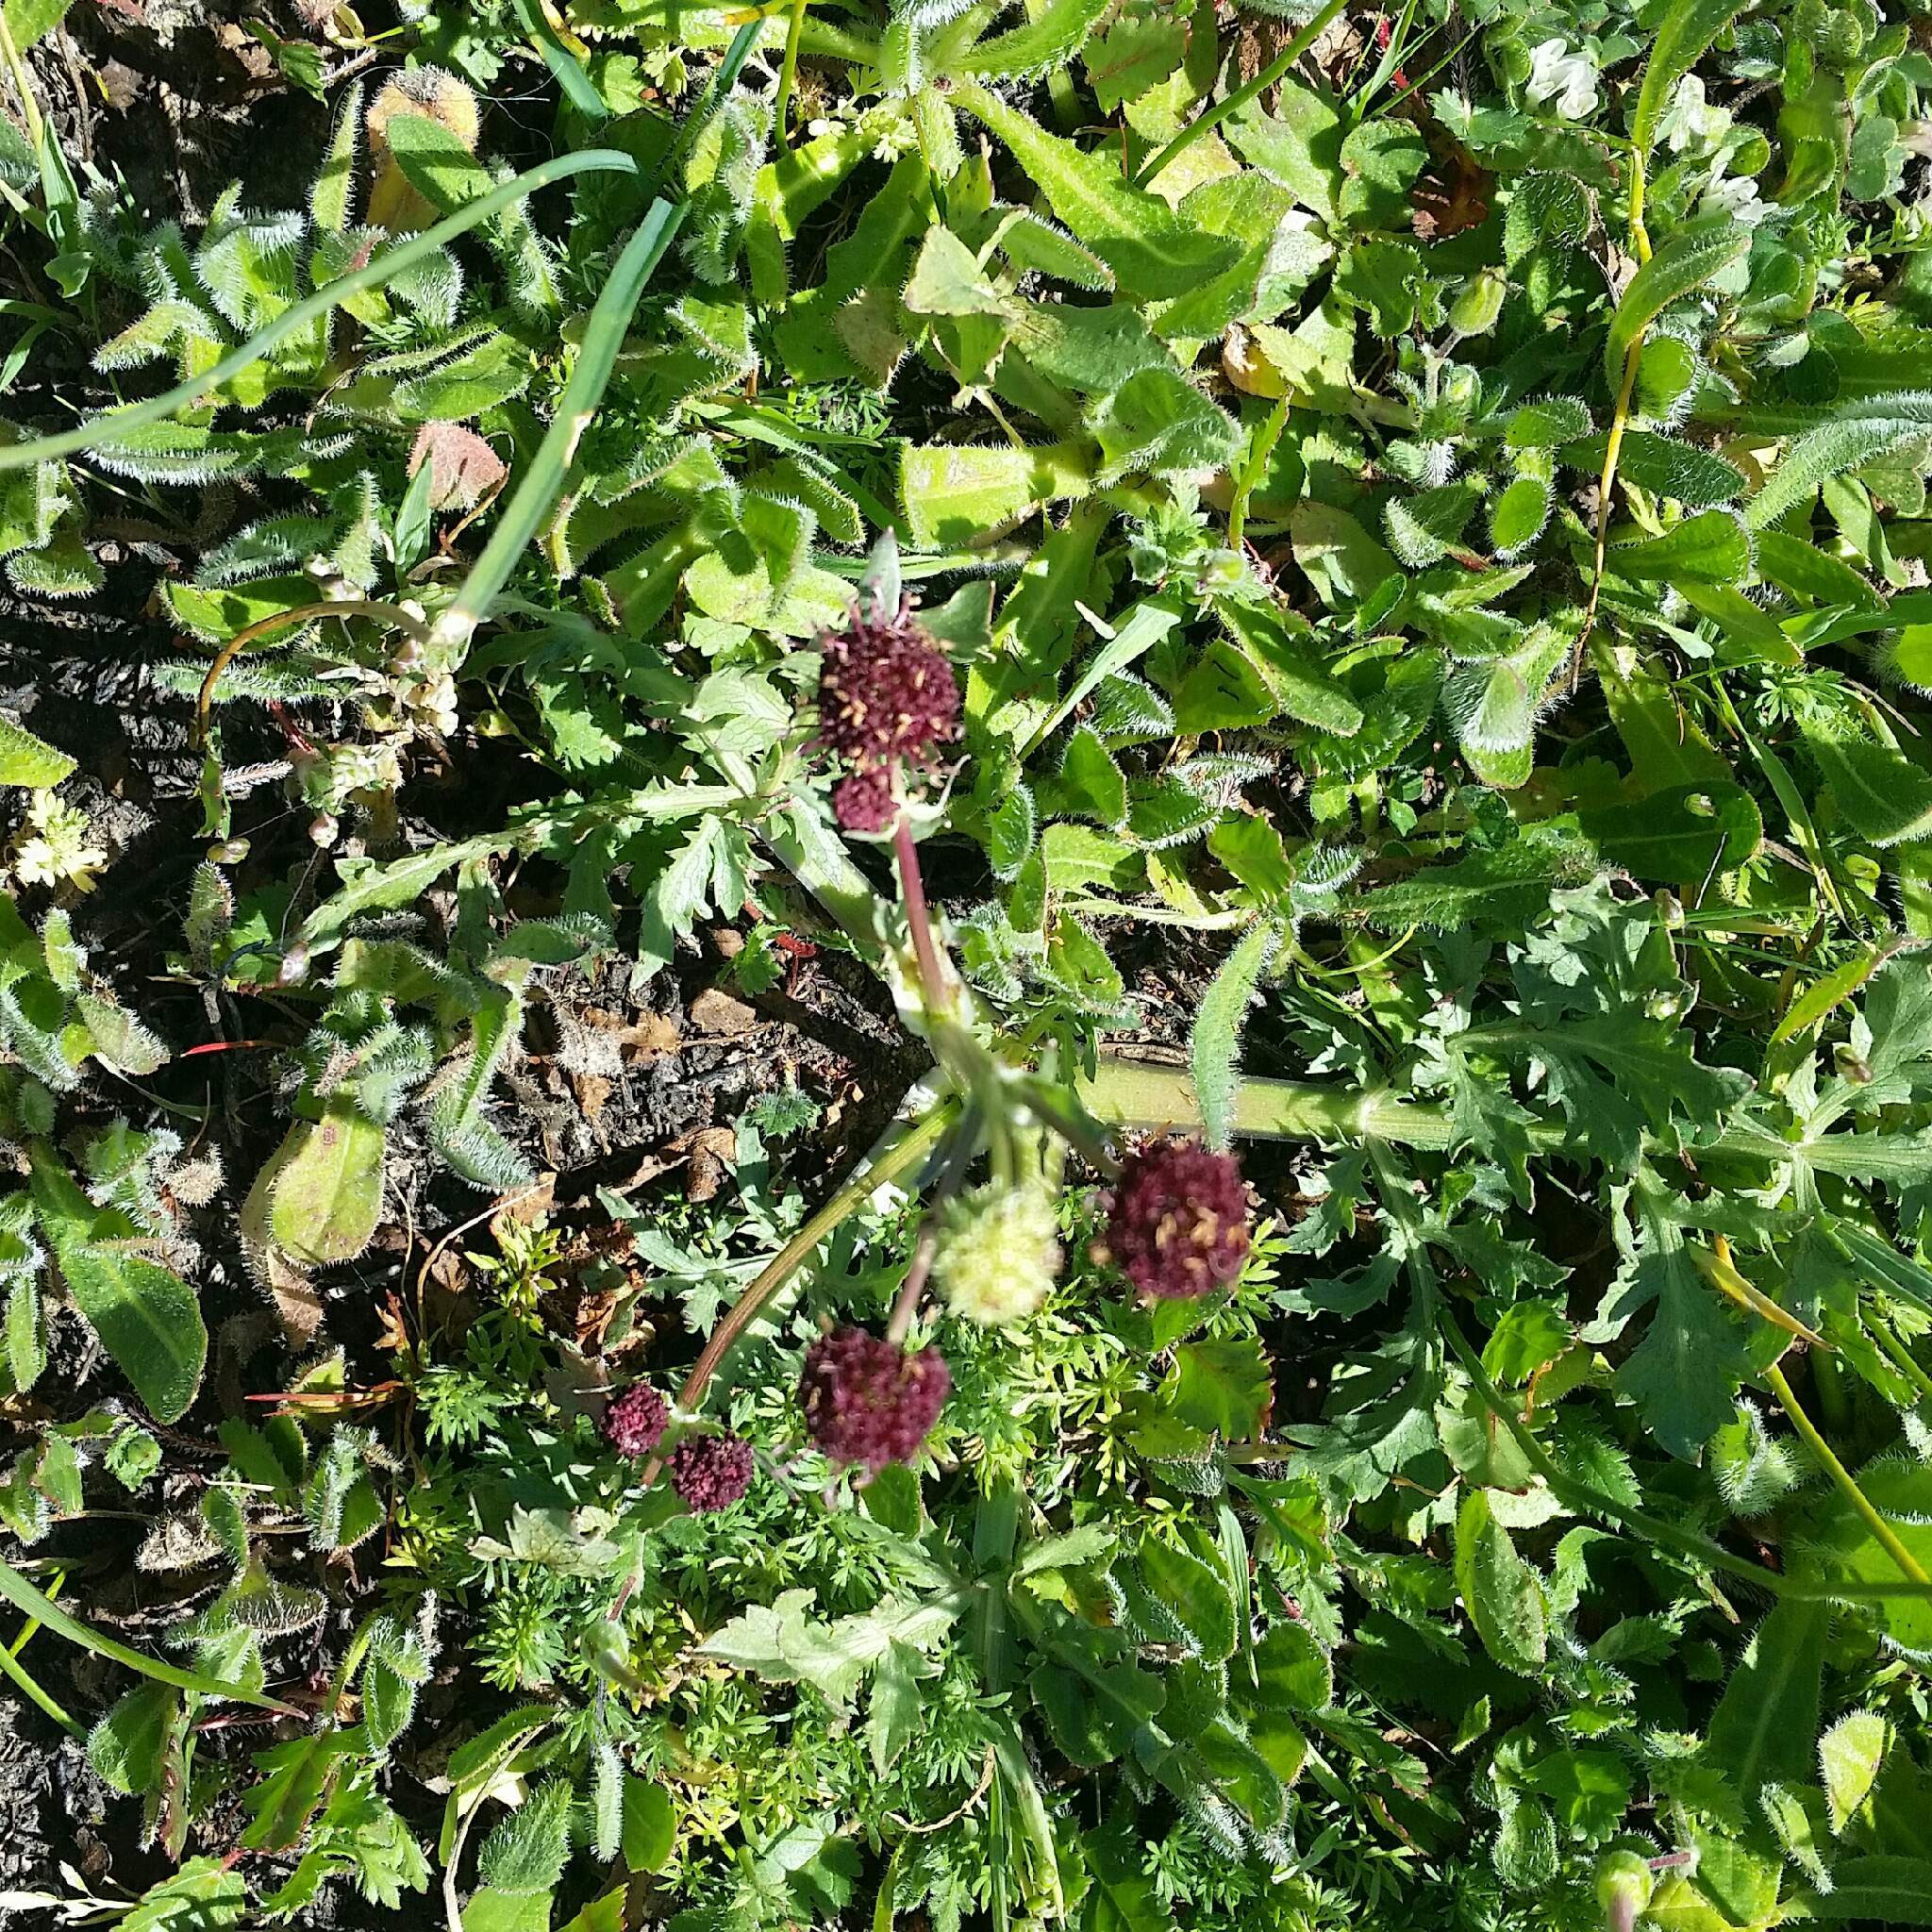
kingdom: Plantae
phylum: Tracheophyta
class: Magnoliopsida
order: Apiales
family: Apiaceae
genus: Sanicula
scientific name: Sanicula bipinnatifida
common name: Shoe-buttons
